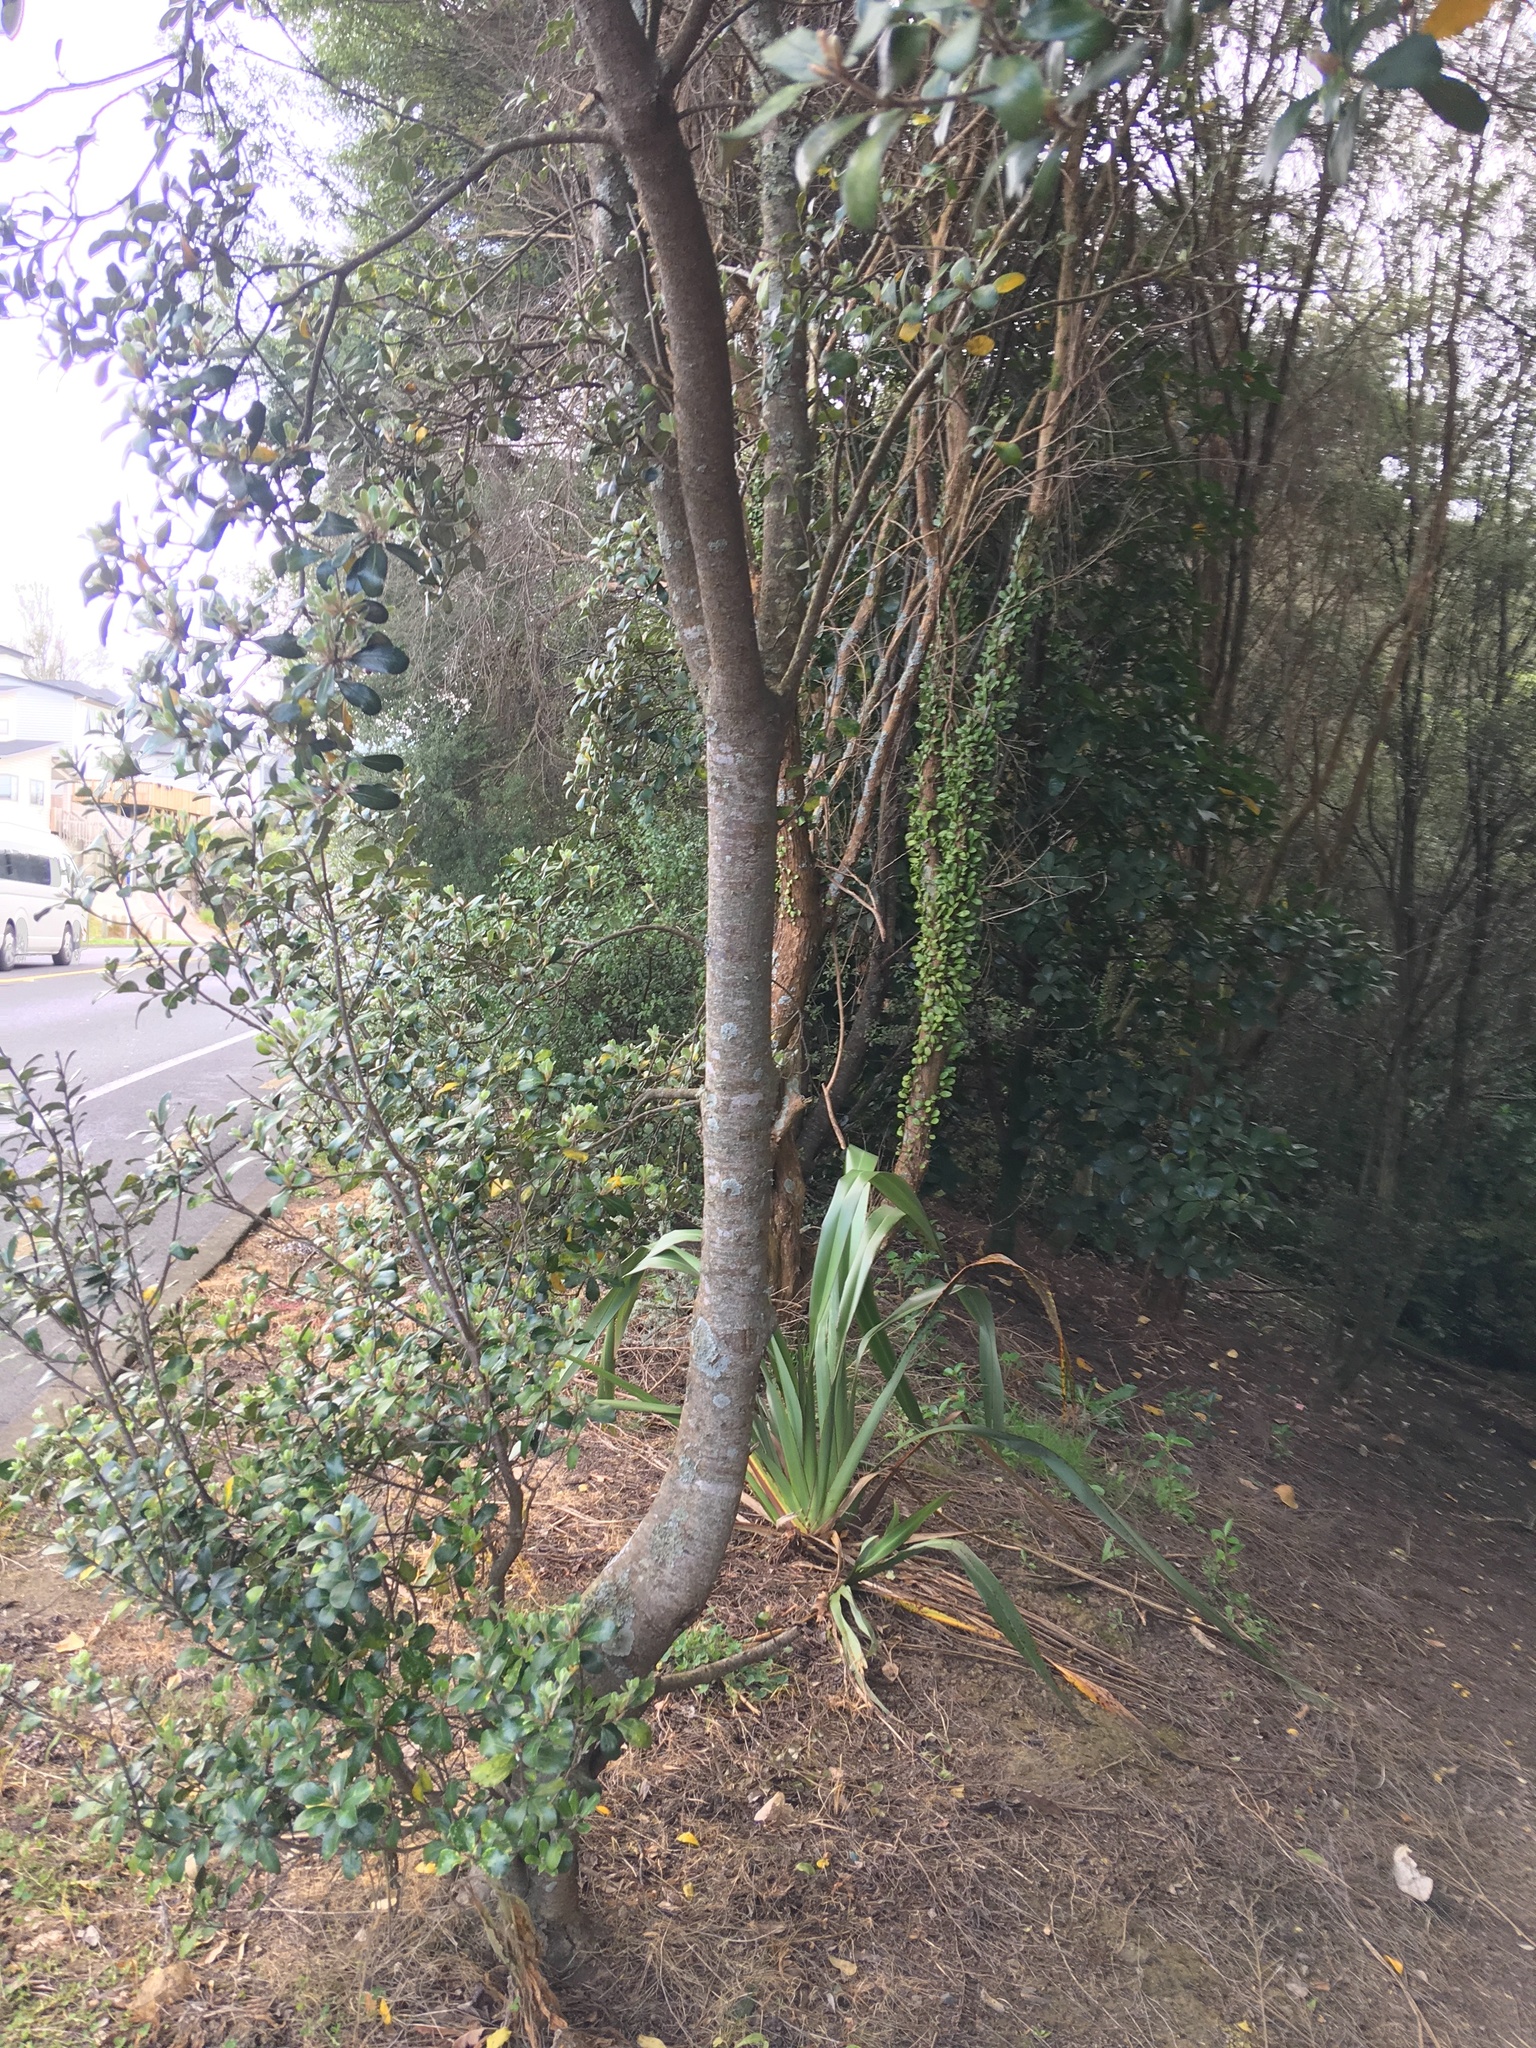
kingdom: Plantae
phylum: Tracheophyta
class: Polypodiopsida
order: Polypodiales
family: Polypodiaceae
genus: Pyrrosia
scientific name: Pyrrosia eleagnifolia
